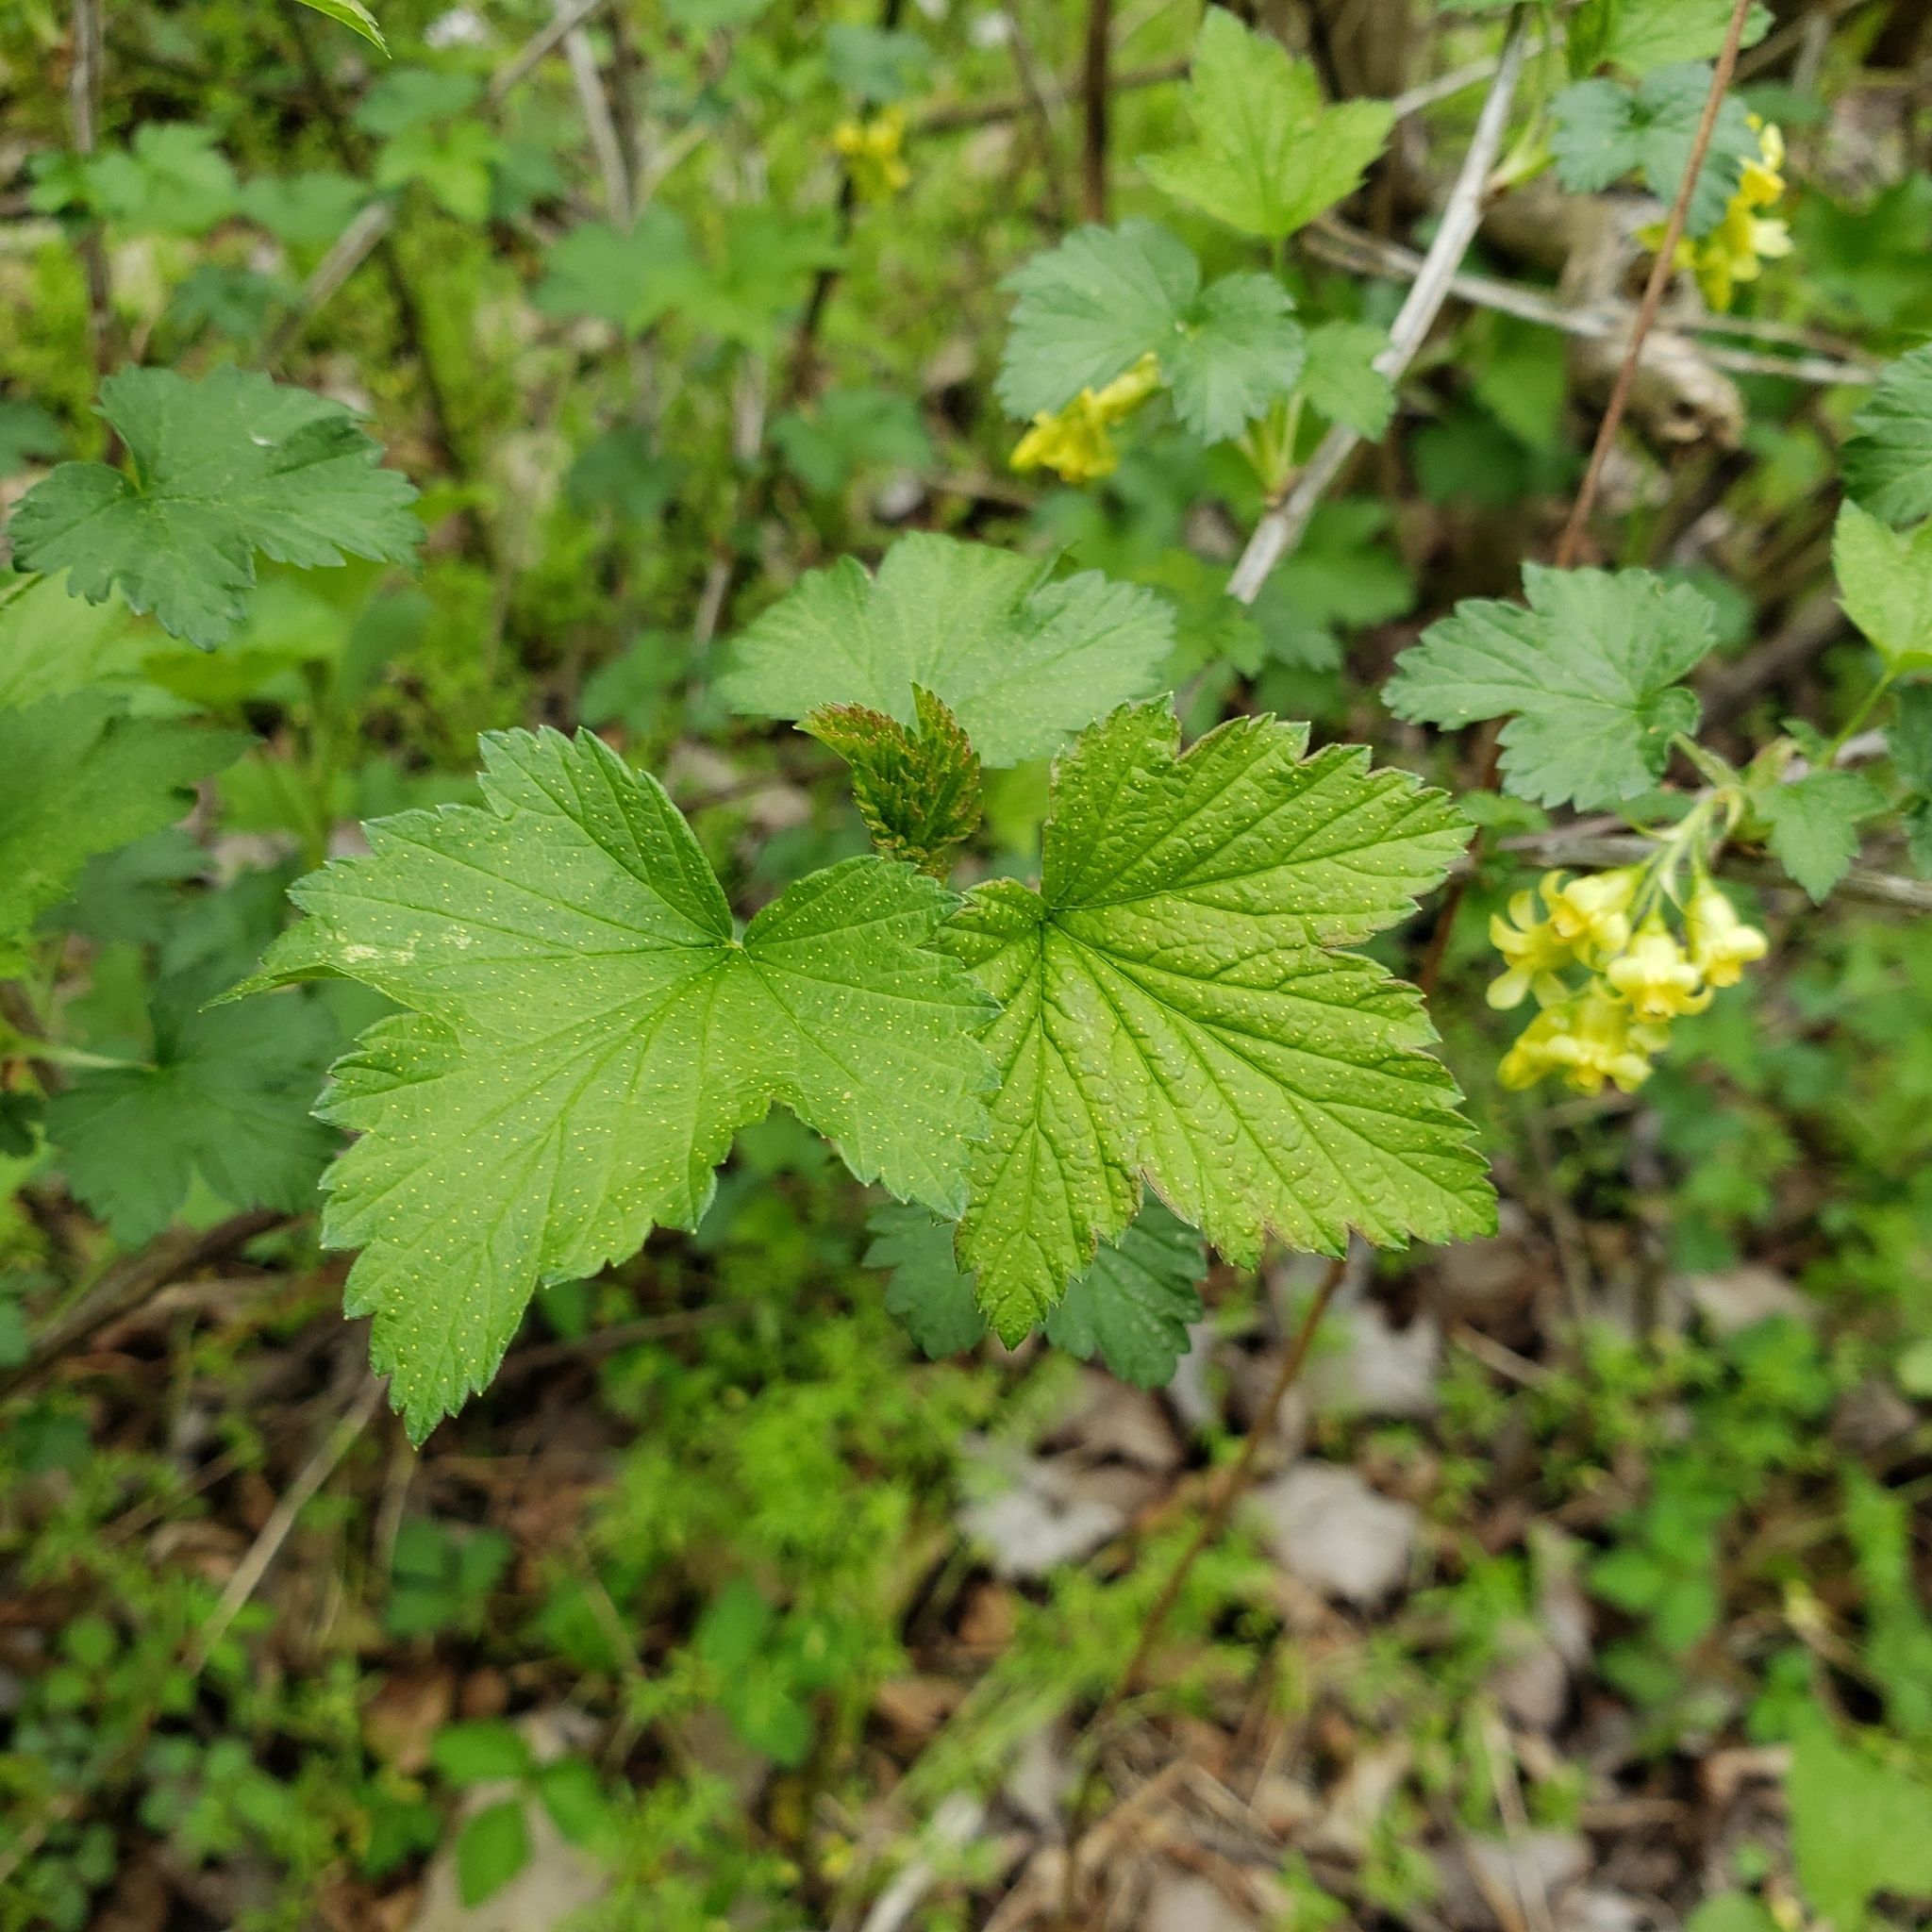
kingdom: Plantae
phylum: Tracheophyta
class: Magnoliopsida
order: Saxifragales
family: Grossulariaceae
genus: Ribes
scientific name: Ribes americanum
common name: American black currant
